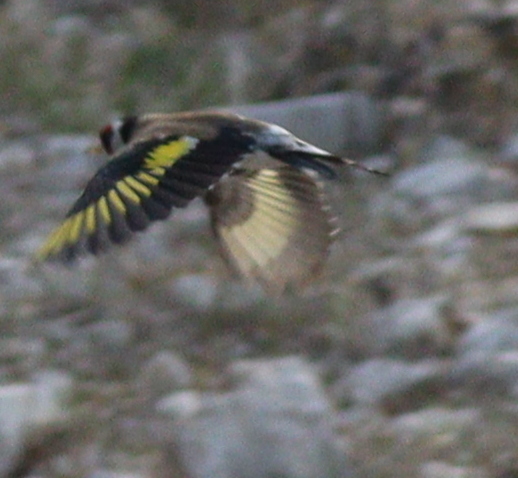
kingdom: Animalia
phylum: Chordata
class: Aves
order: Passeriformes
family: Fringillidae
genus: Carduelis
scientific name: Carduelis carduelis
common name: European goldfinch
